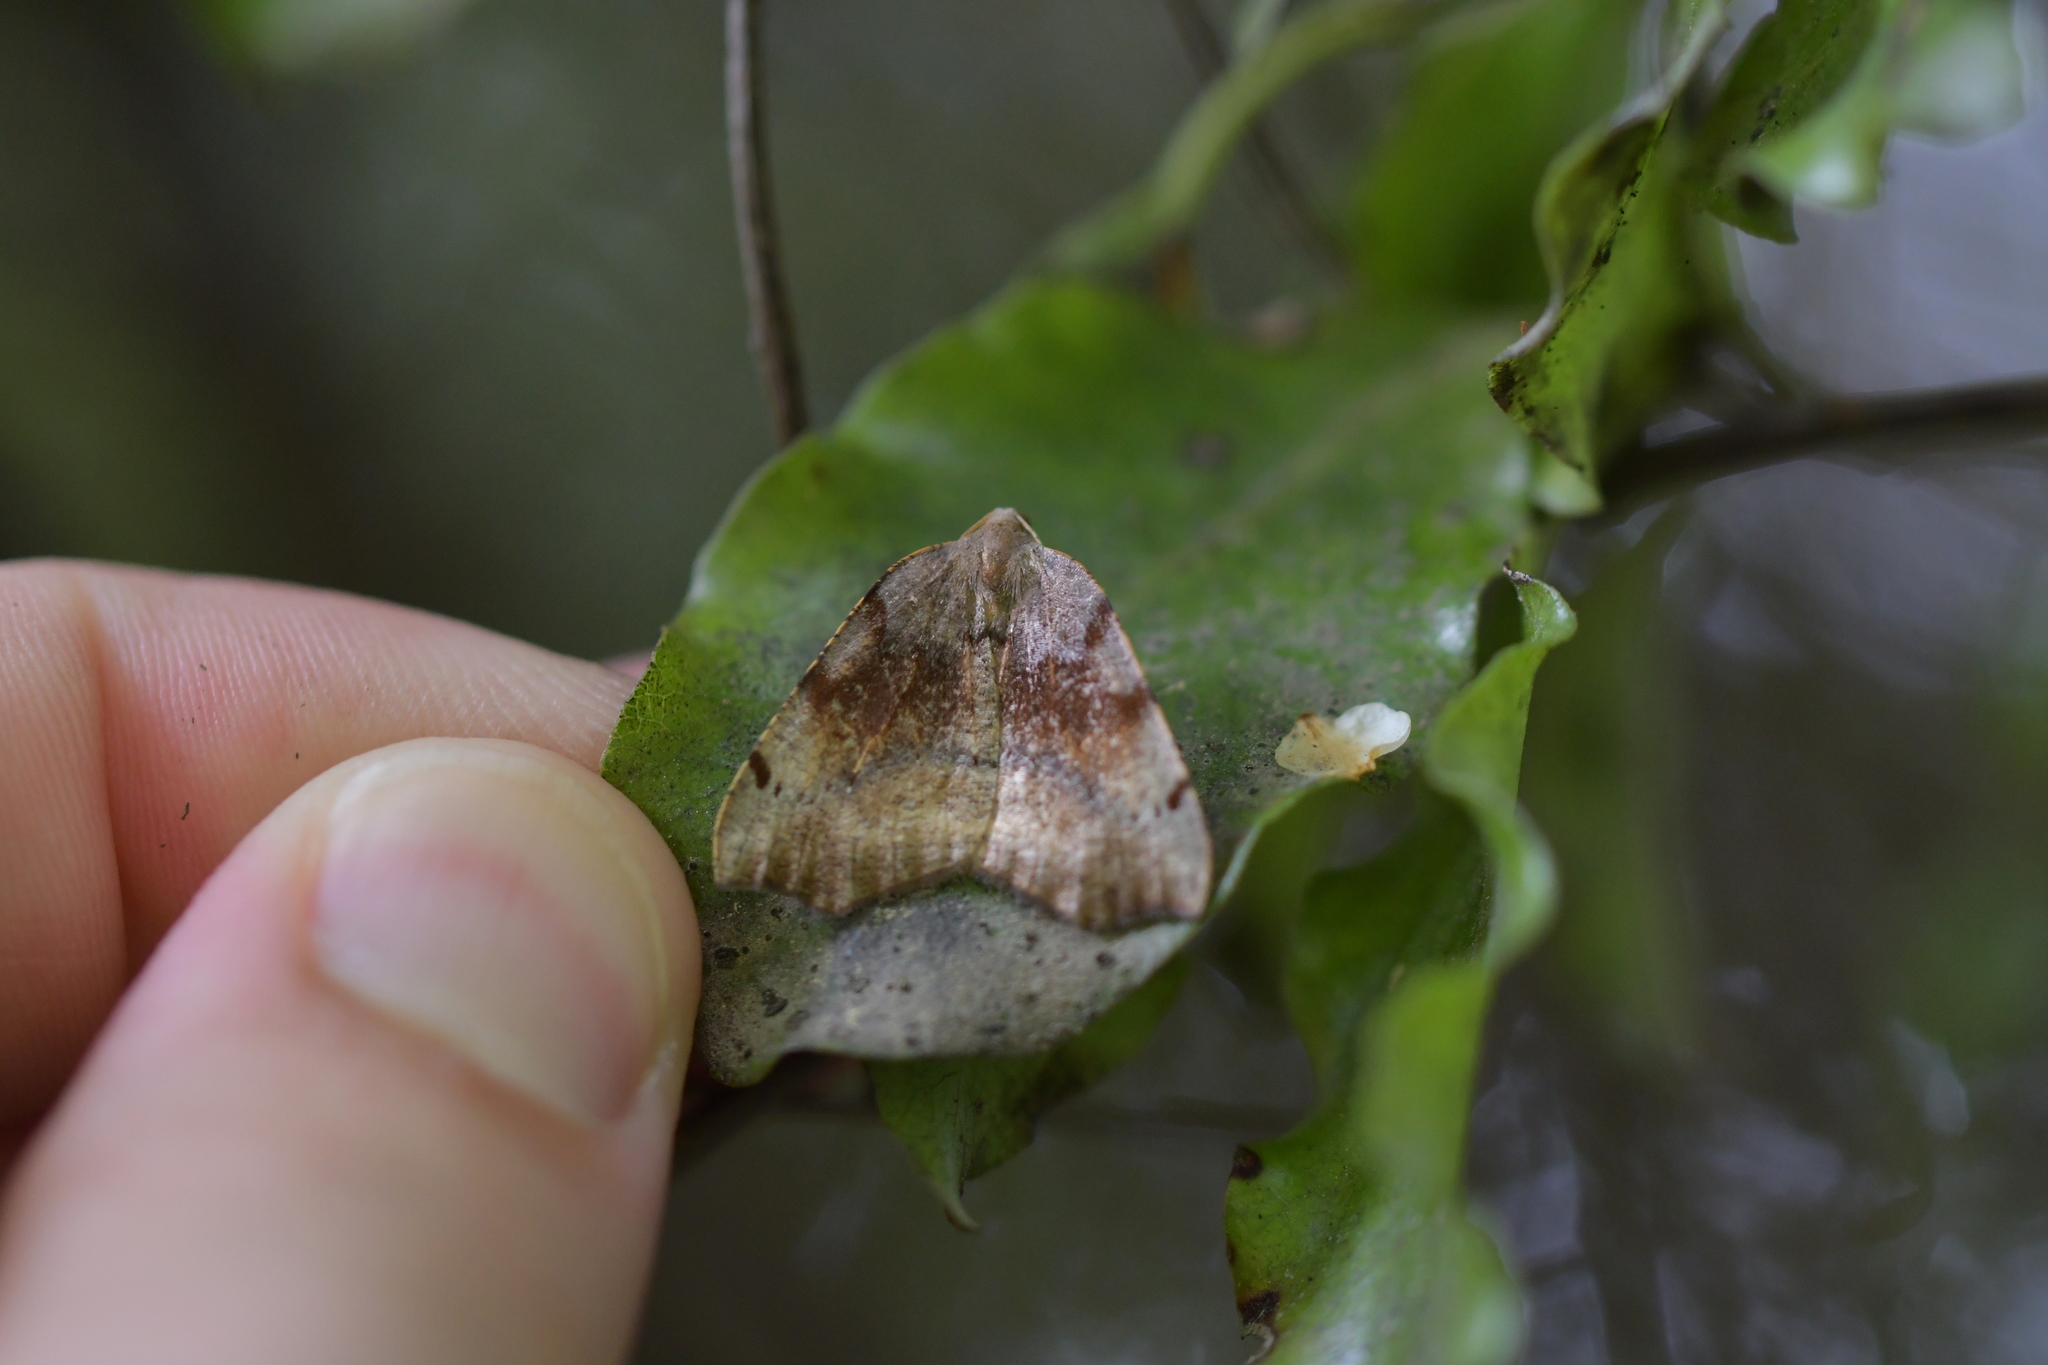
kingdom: Animalia
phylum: Arthropoda
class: Insecta
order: Lepidoptera
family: Geometridae
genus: Sestra
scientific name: Sestra flexata
